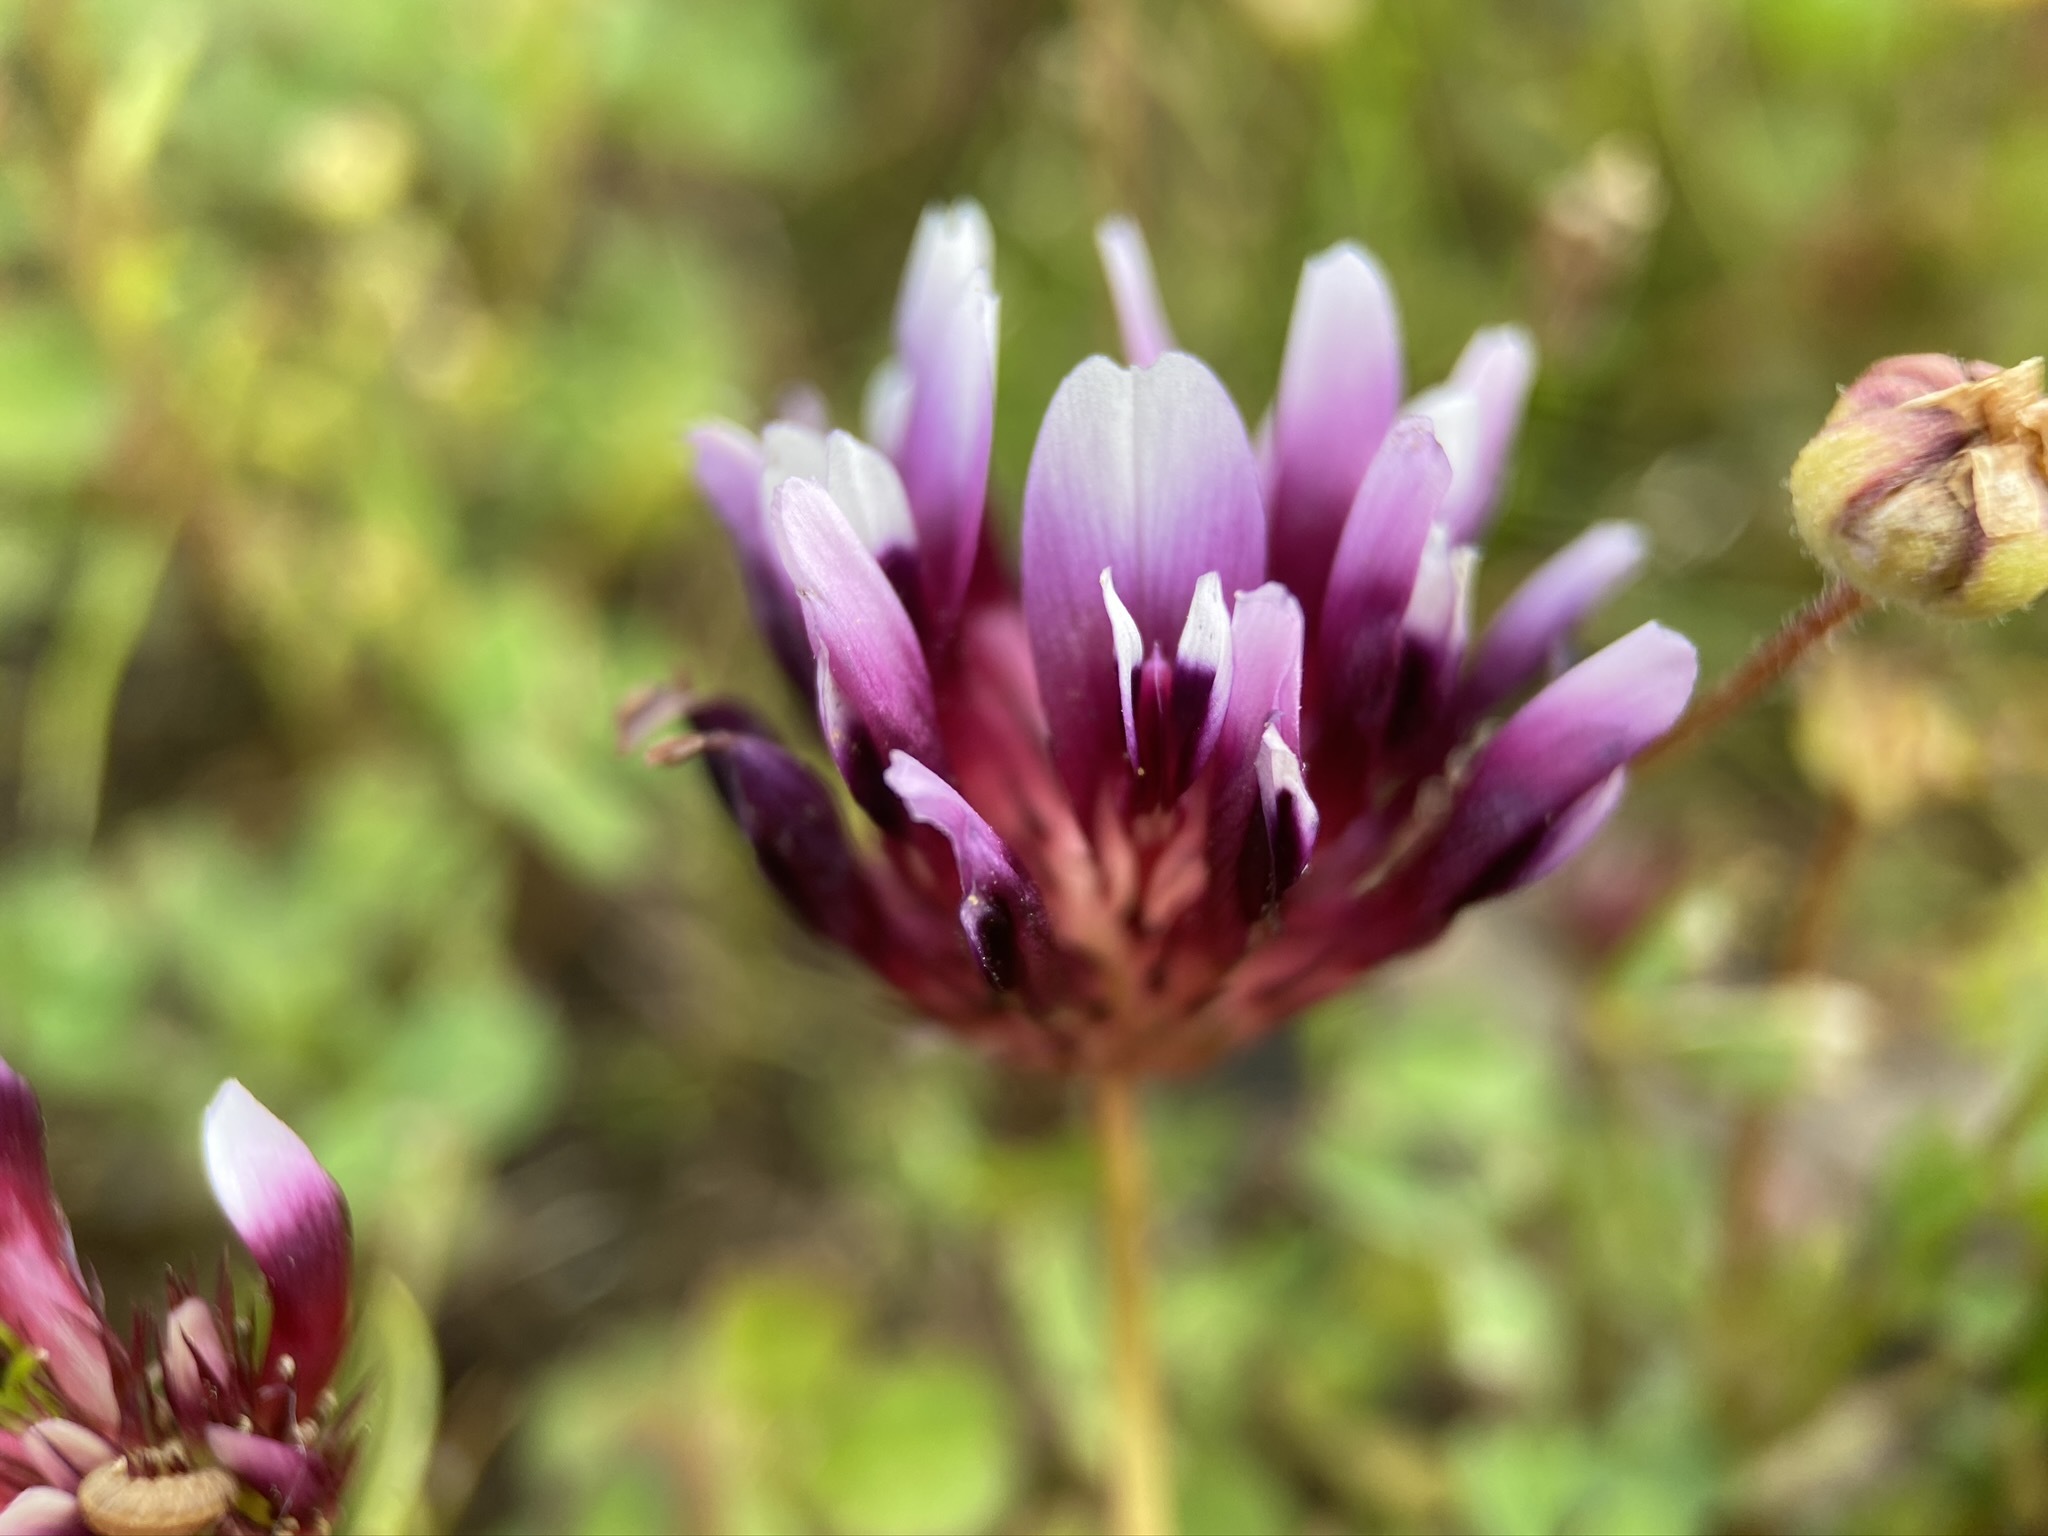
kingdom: Plantae
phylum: Tracheophyta
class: Magnoliopsida
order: Fabales
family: Fabaceae
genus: Trifolium
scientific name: Trifolium variegatum
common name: Whitetip clover
